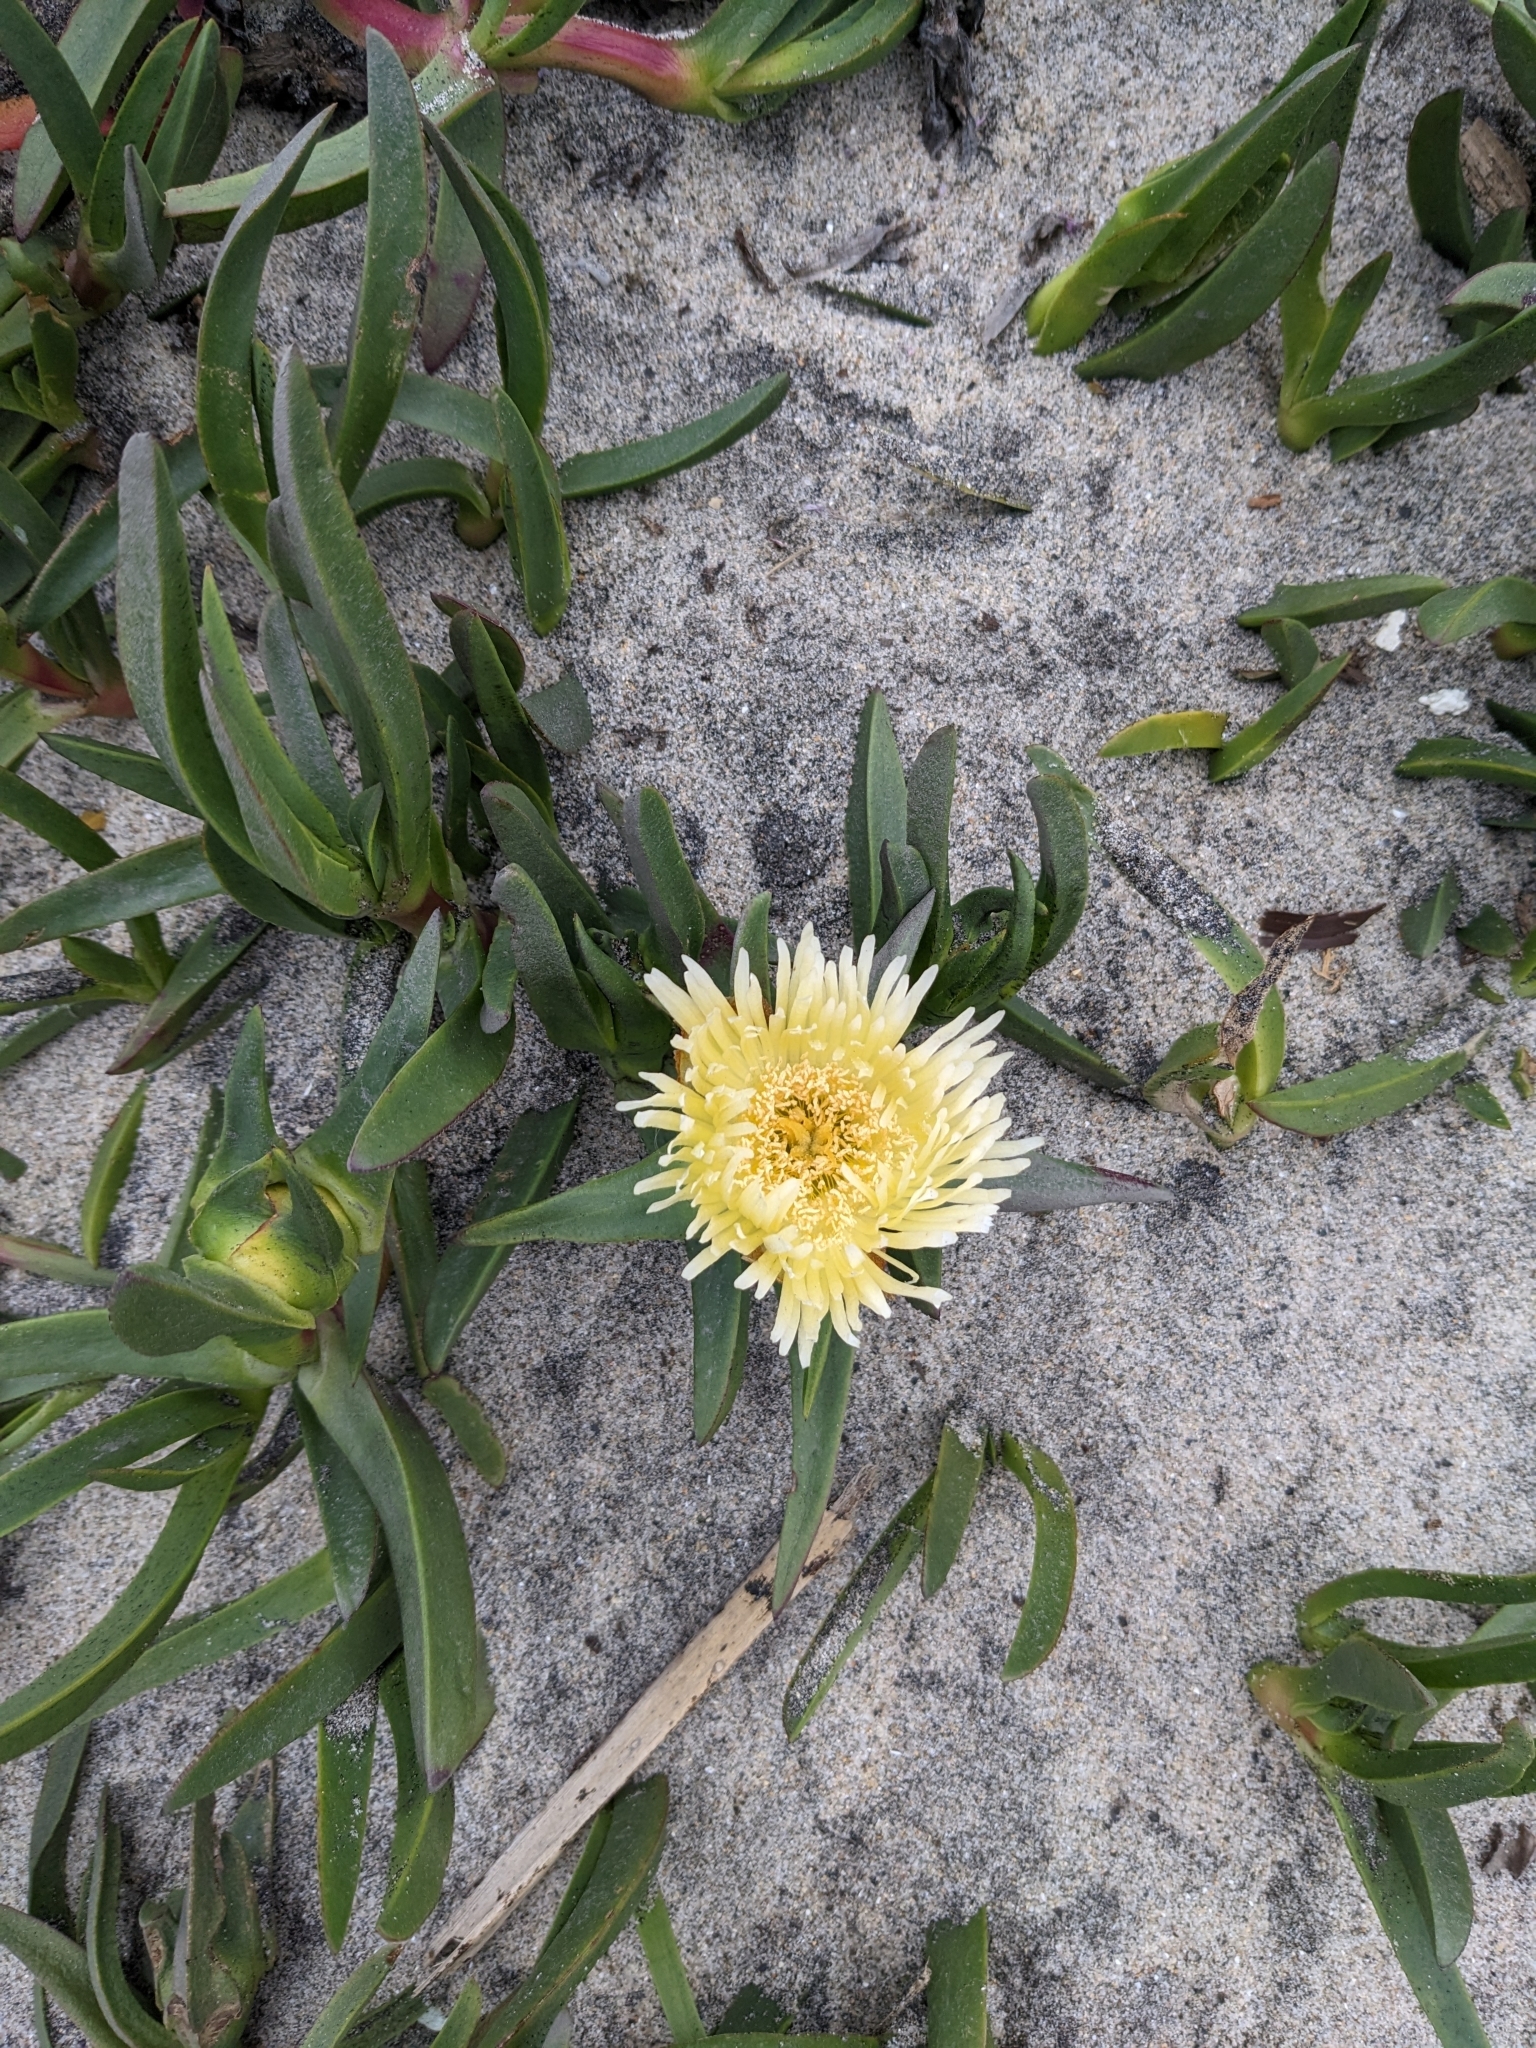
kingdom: Plantae
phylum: Tracheophyta
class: Magnoliopsida
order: Caryophyllales
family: Aizoaceae
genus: Carpobrotus
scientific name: Carpobrotus edulis
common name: Hottentot-fig
